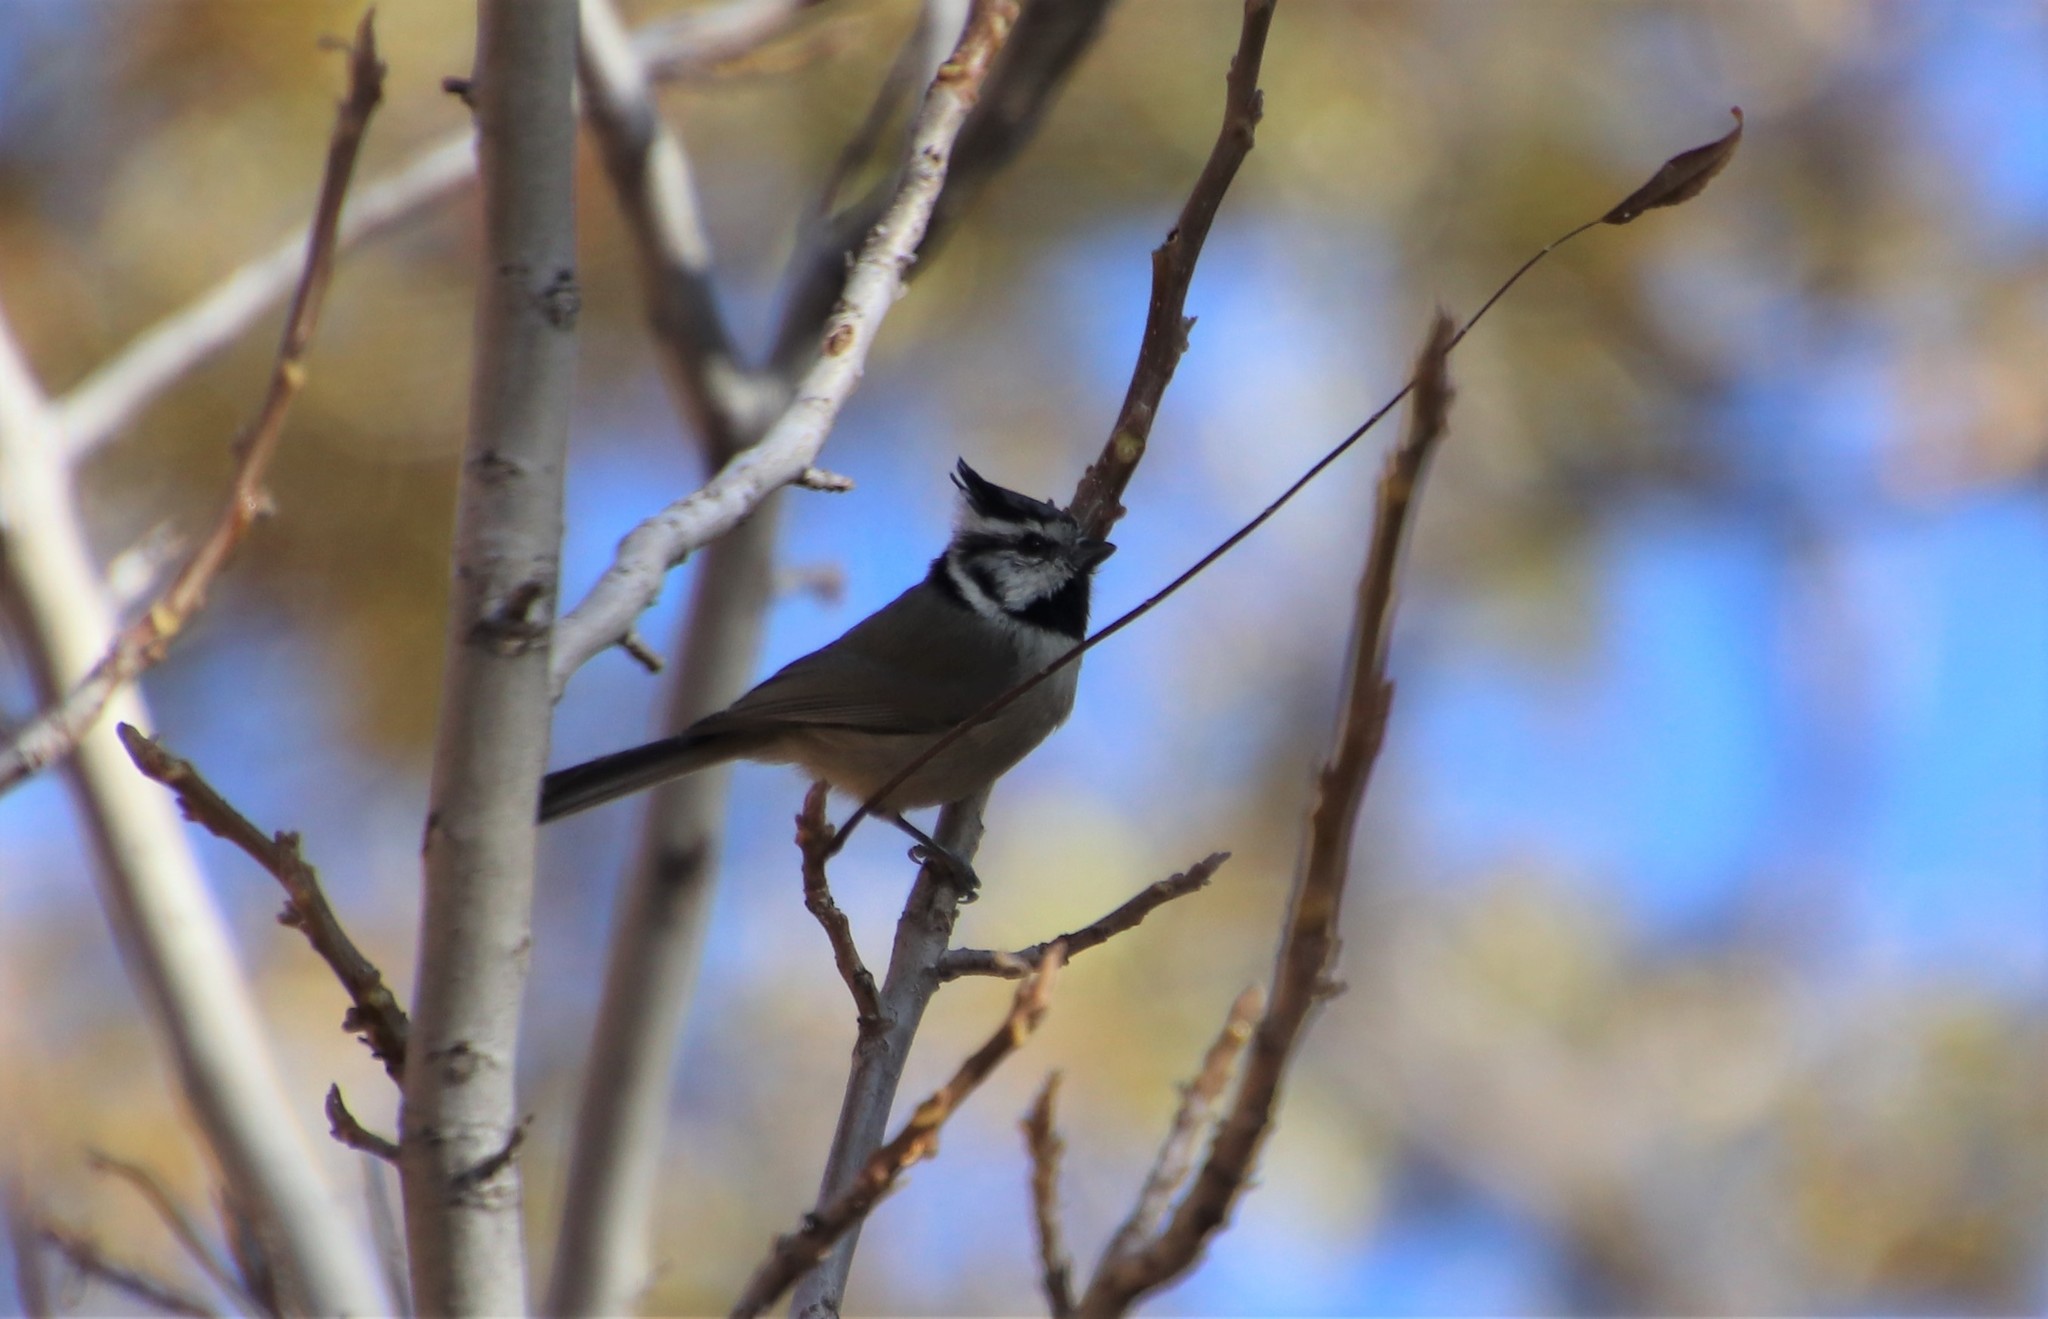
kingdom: Animalia
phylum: Chordata
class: Aves
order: Passeriformes
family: Paridae
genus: Baeolophus
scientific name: Baeolophus wollweberi
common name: Bridled titmouse
